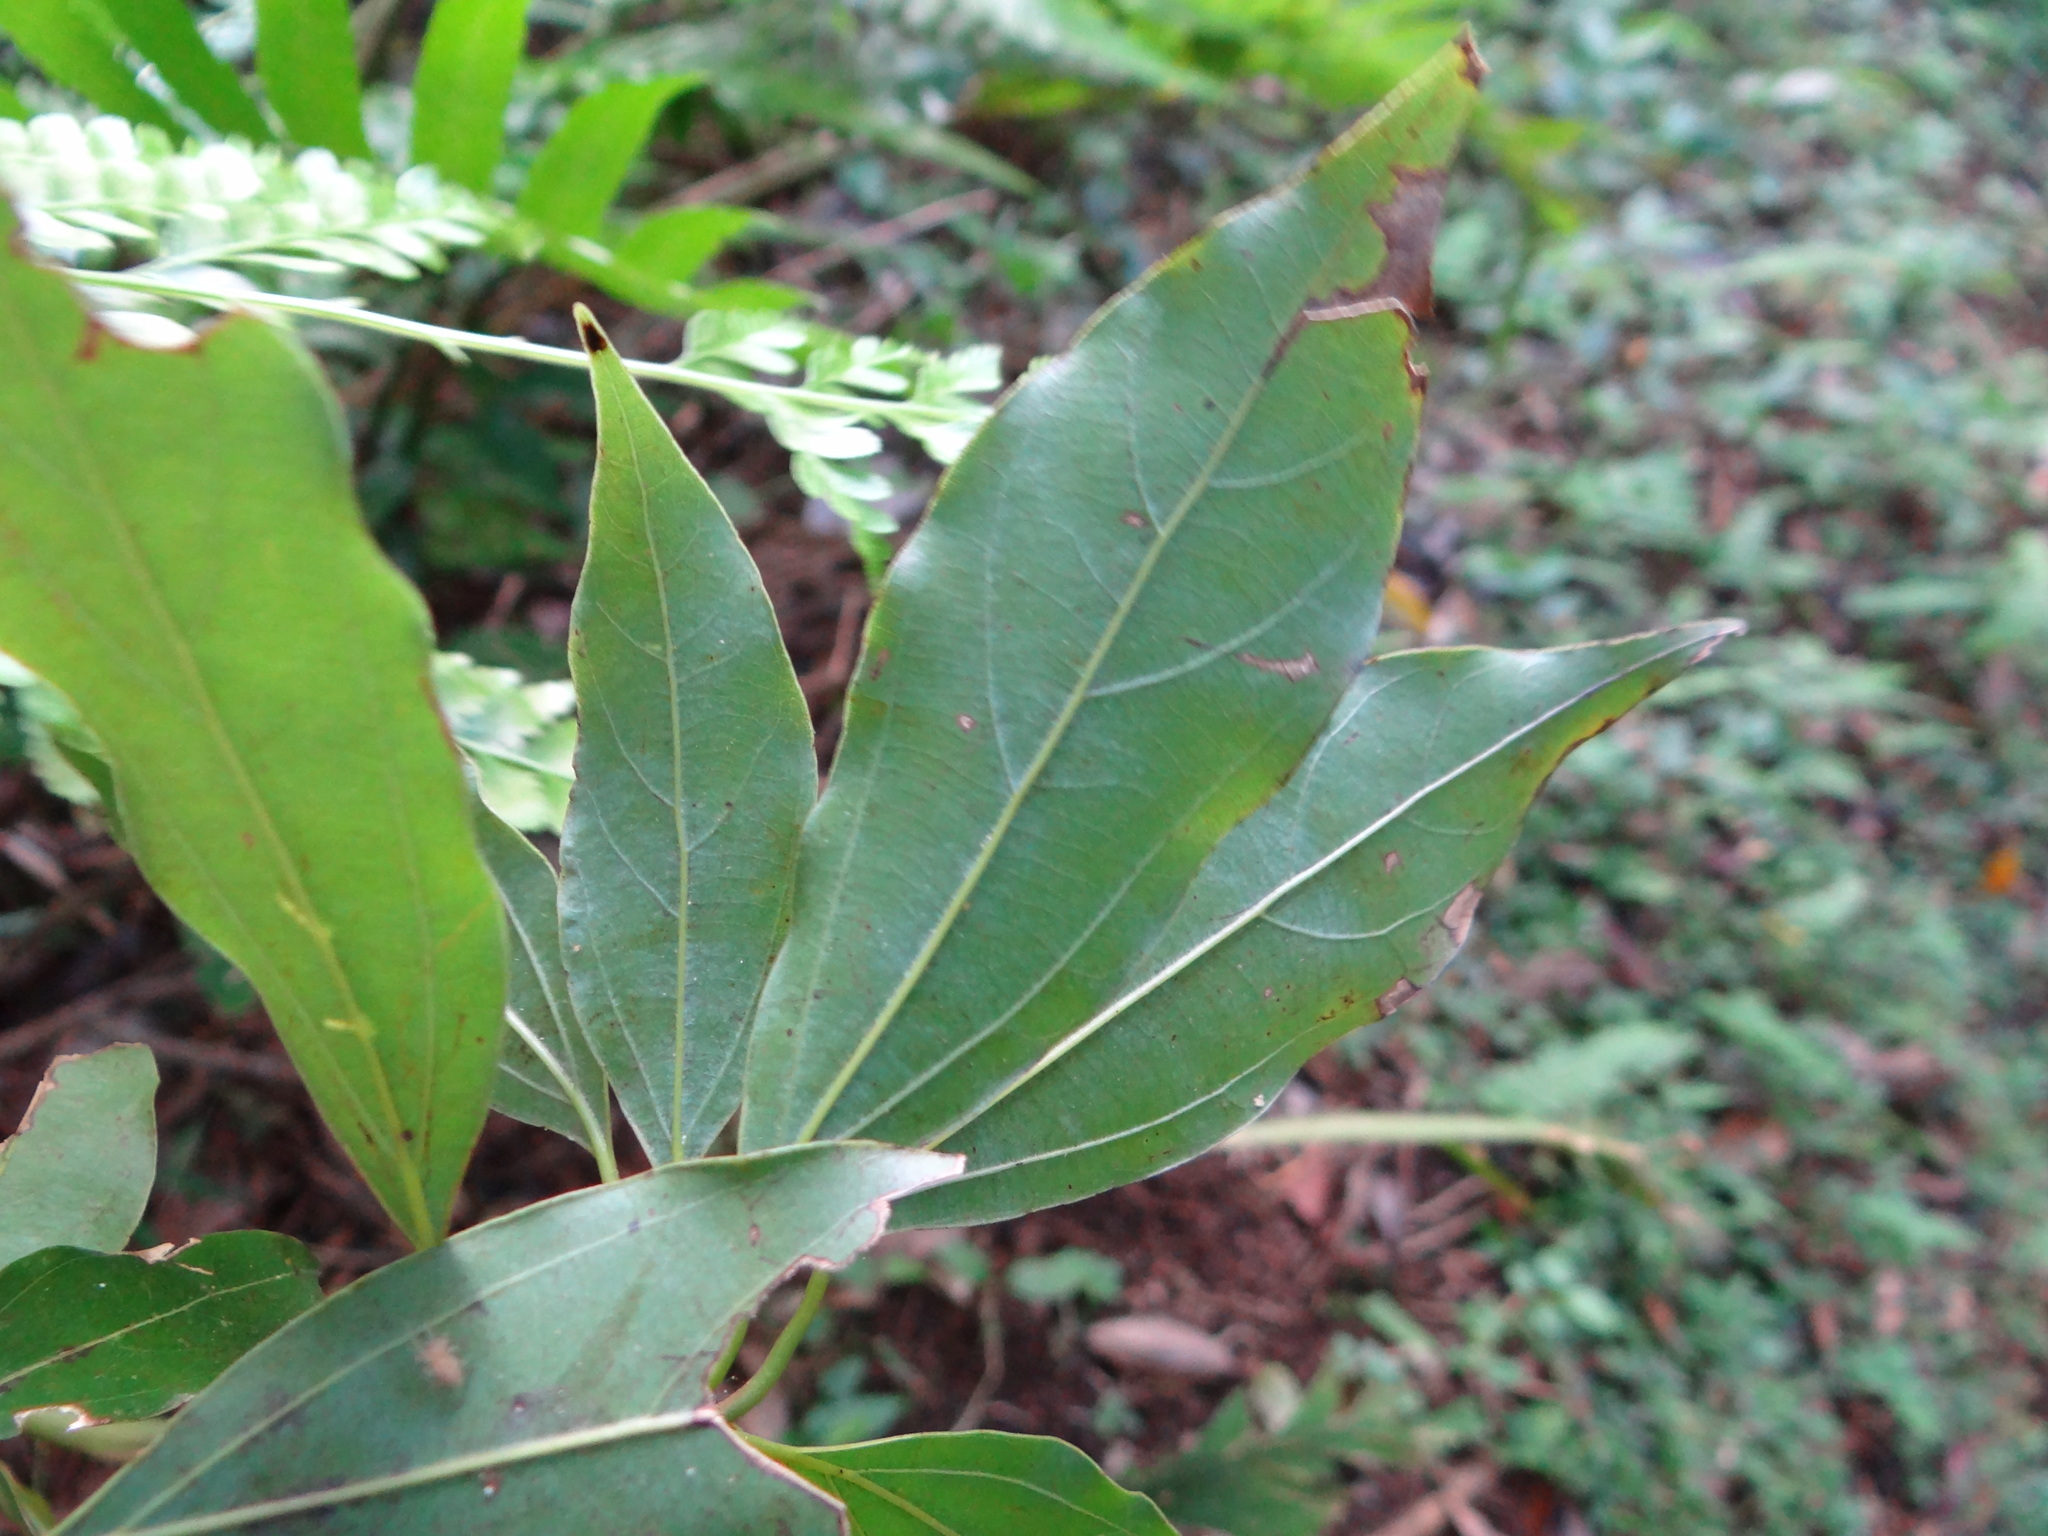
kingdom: Plantae
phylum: Tracheophyta
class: Magnoliopsida
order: Laurales
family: Lauraceae
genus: Neolitsea
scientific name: Neolitsea variabillima
